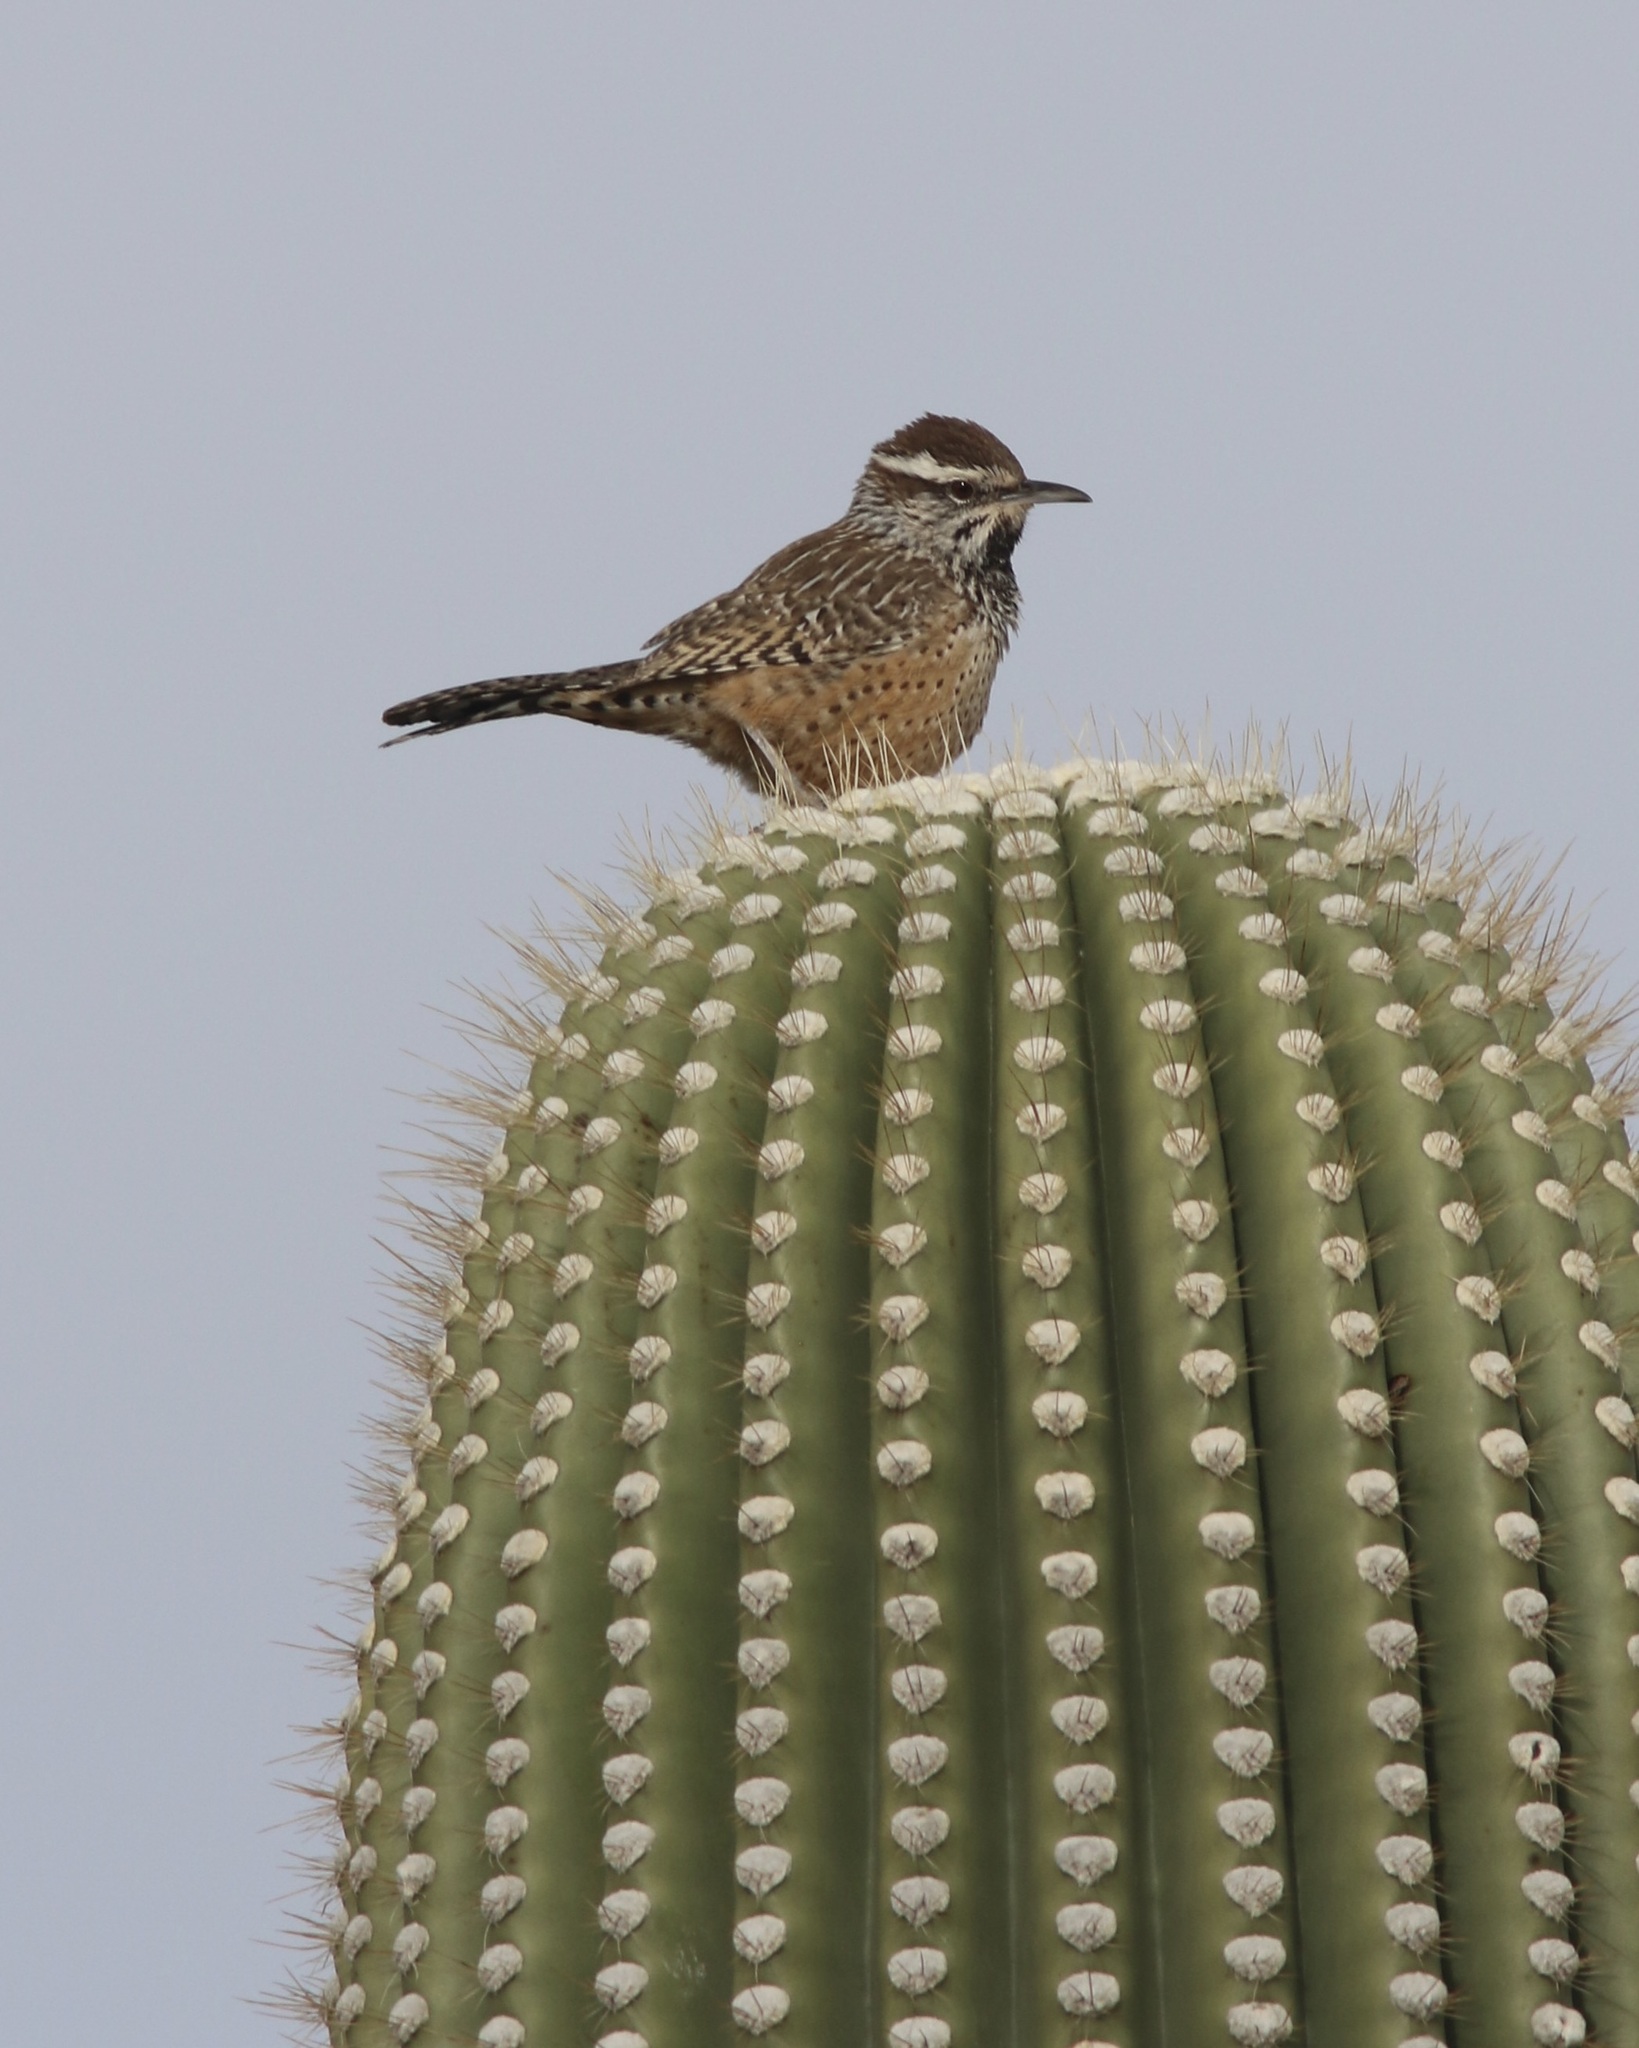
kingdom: Animalia
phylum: Chordata
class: Aves
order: Passeriformes
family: Troglodytidae
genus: Campylorhynchus
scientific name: Campylorhynchus brunneicapillus
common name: Cactus wren
